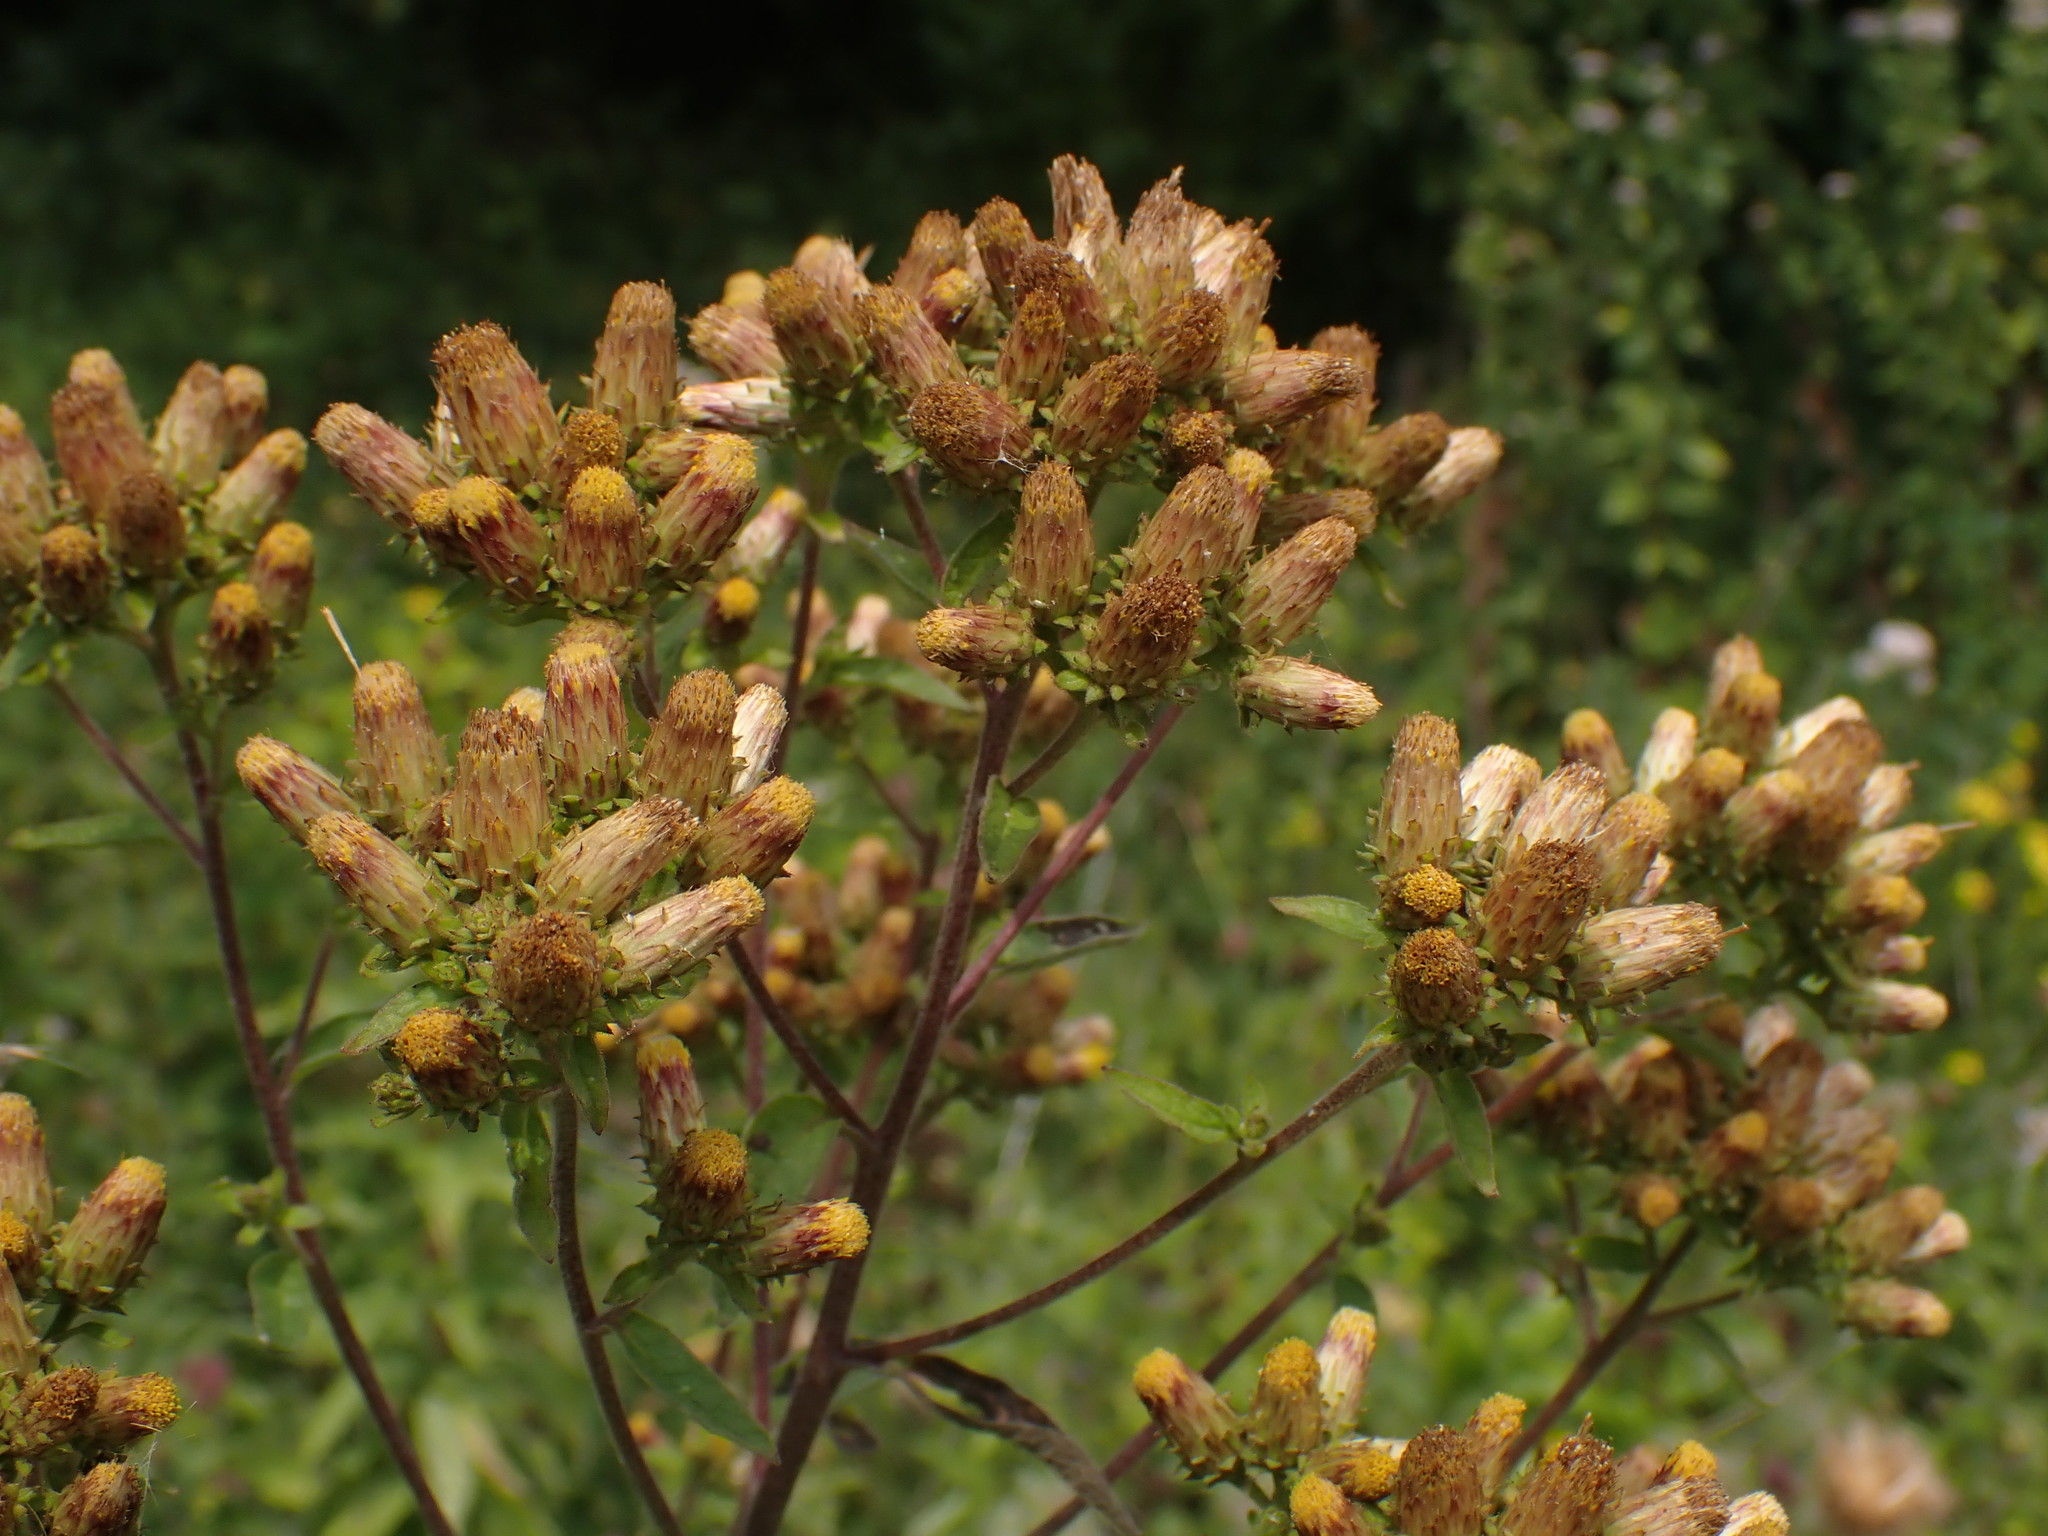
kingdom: Plantae
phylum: Tracheophyta
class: Magnoliopsida
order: Asterales
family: Asteraceae
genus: Pentanema
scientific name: Pentanema squarrosum
